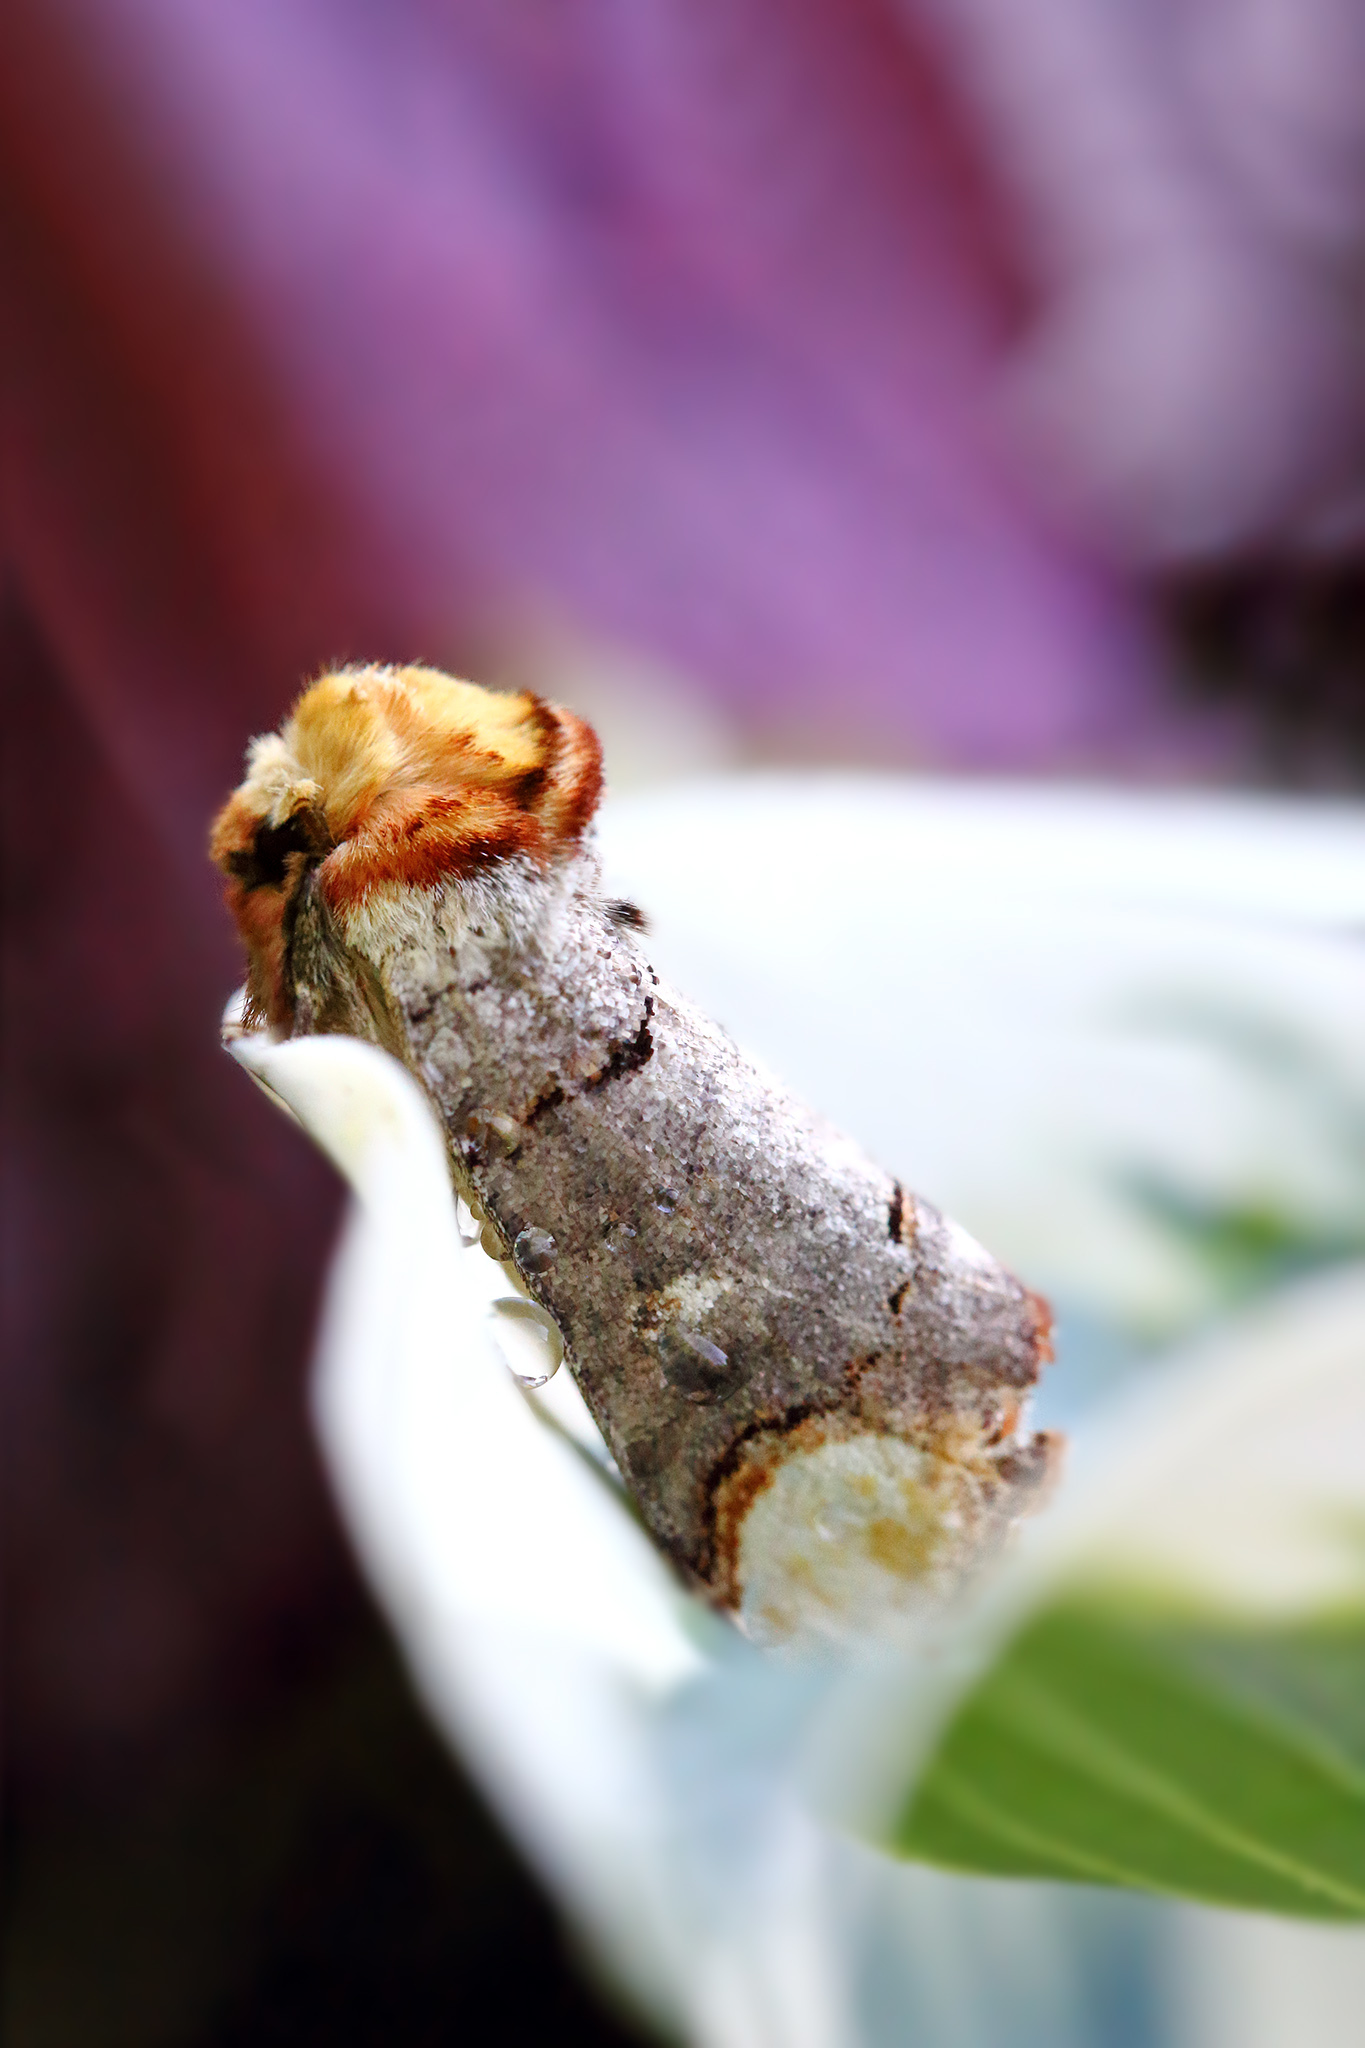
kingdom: Animalia
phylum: Arthropoda
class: Insecta
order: Lepidoptera
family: Notodontidae
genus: Phalera
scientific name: Phalera bucephala
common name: Buff-tip
